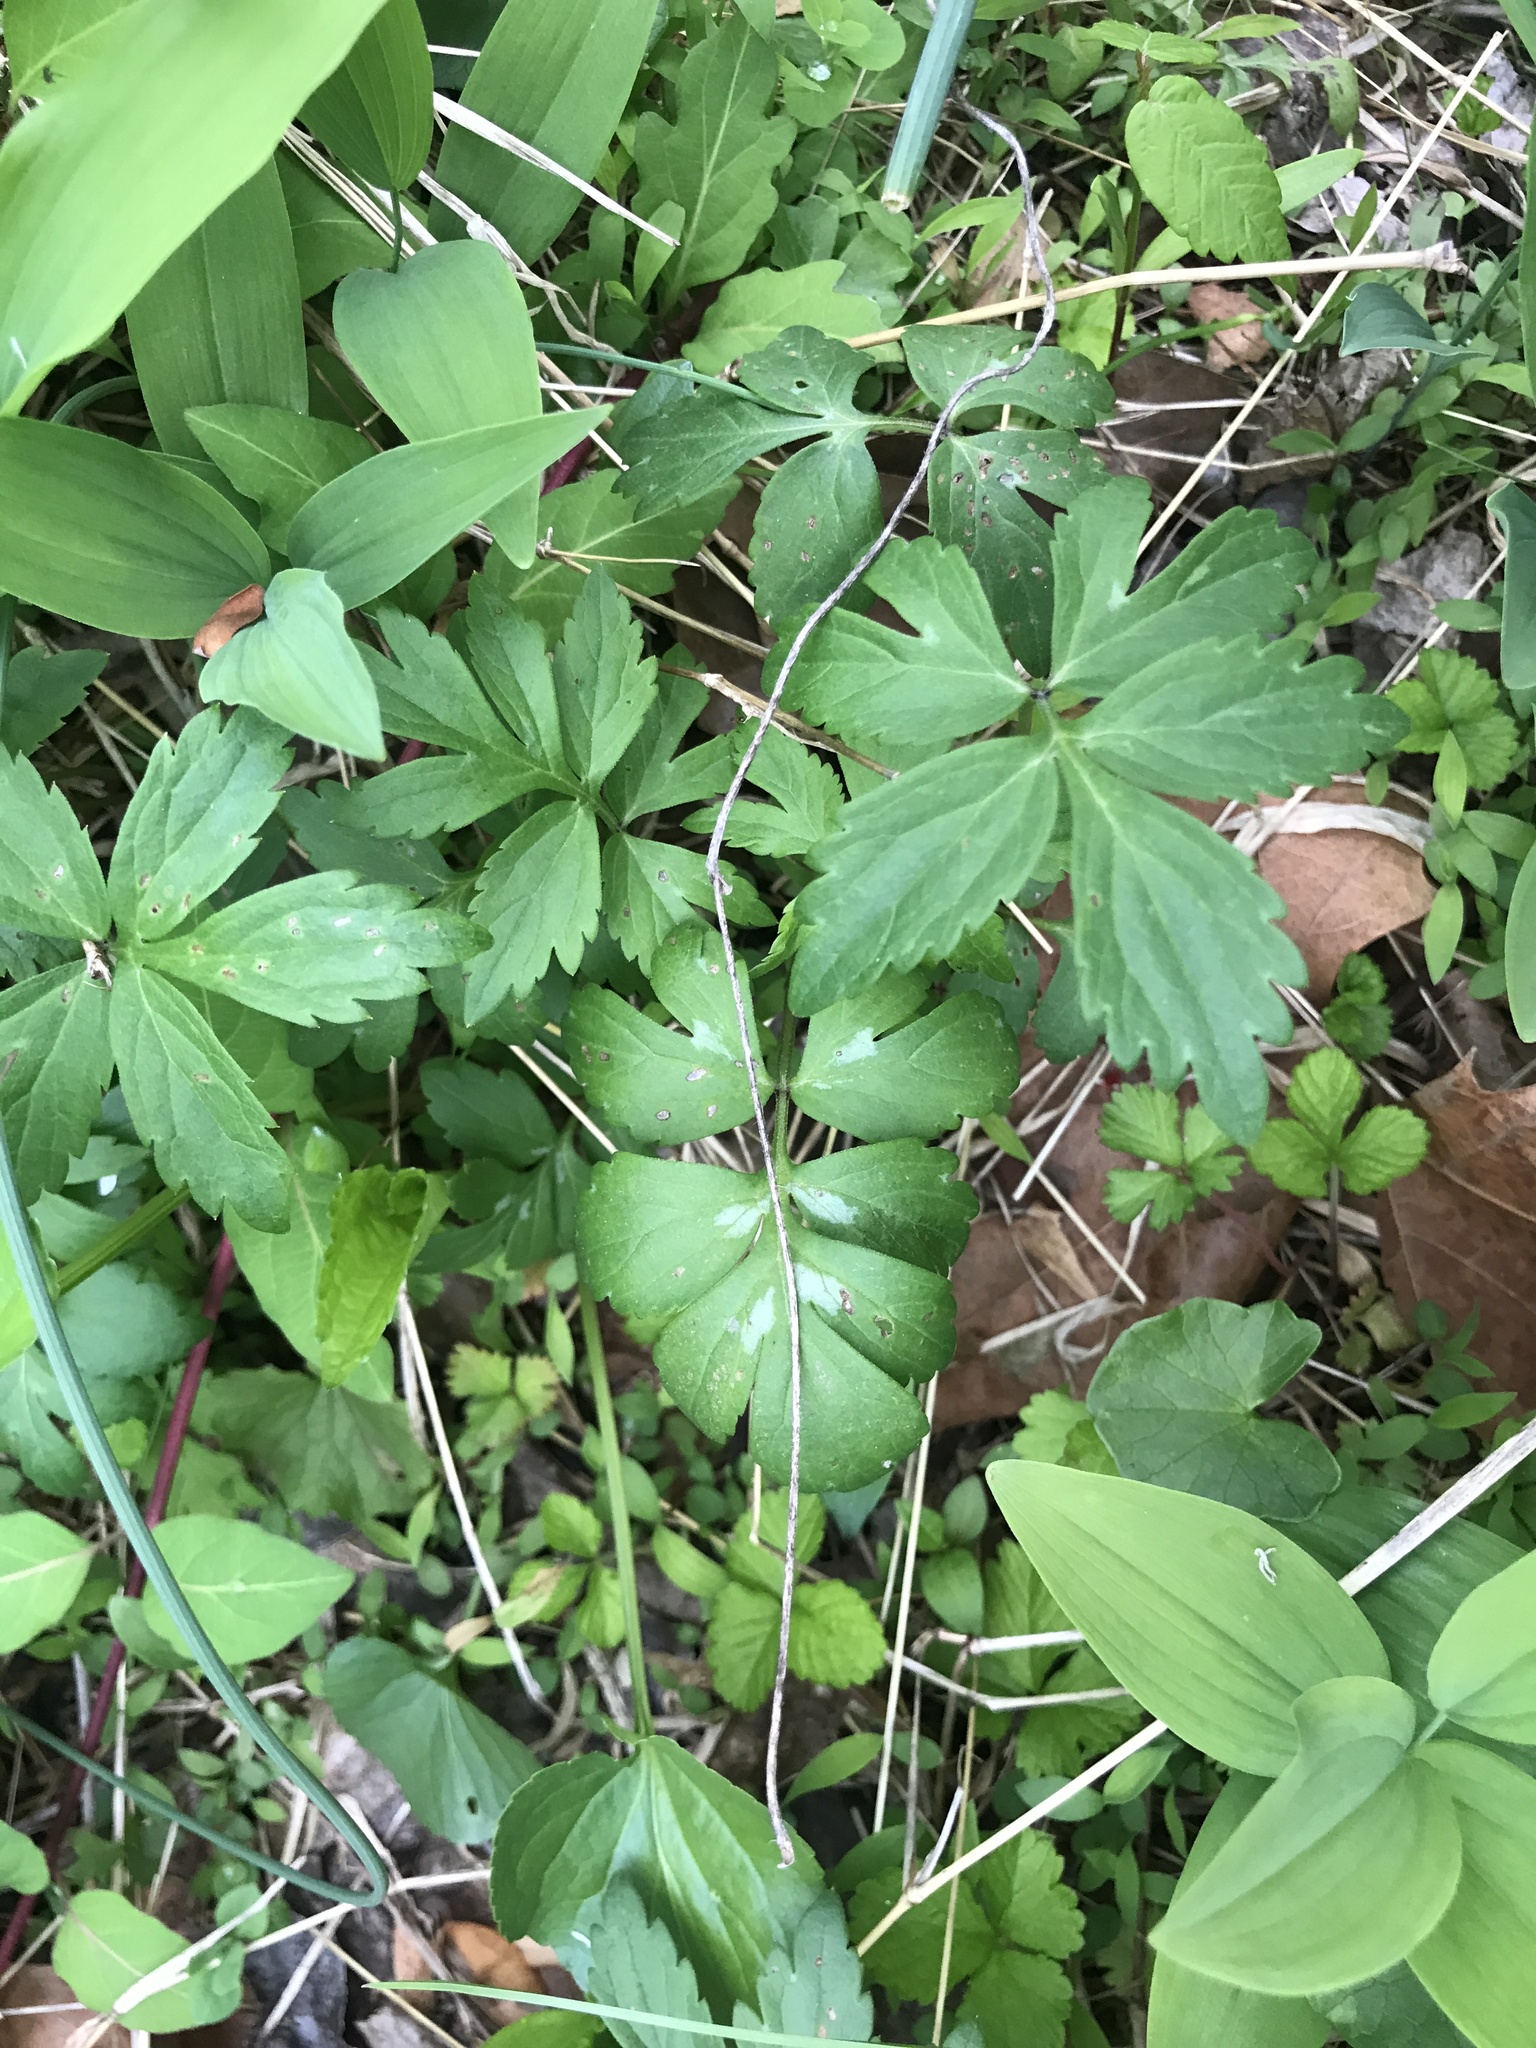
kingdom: Plantae
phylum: Tracheophyta
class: Magnoliopsida
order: Boraginales
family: Hydrophyllaceae
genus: Hydrophyllum
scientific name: Hydrophyllum virginianum
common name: Virginia waterleaf
